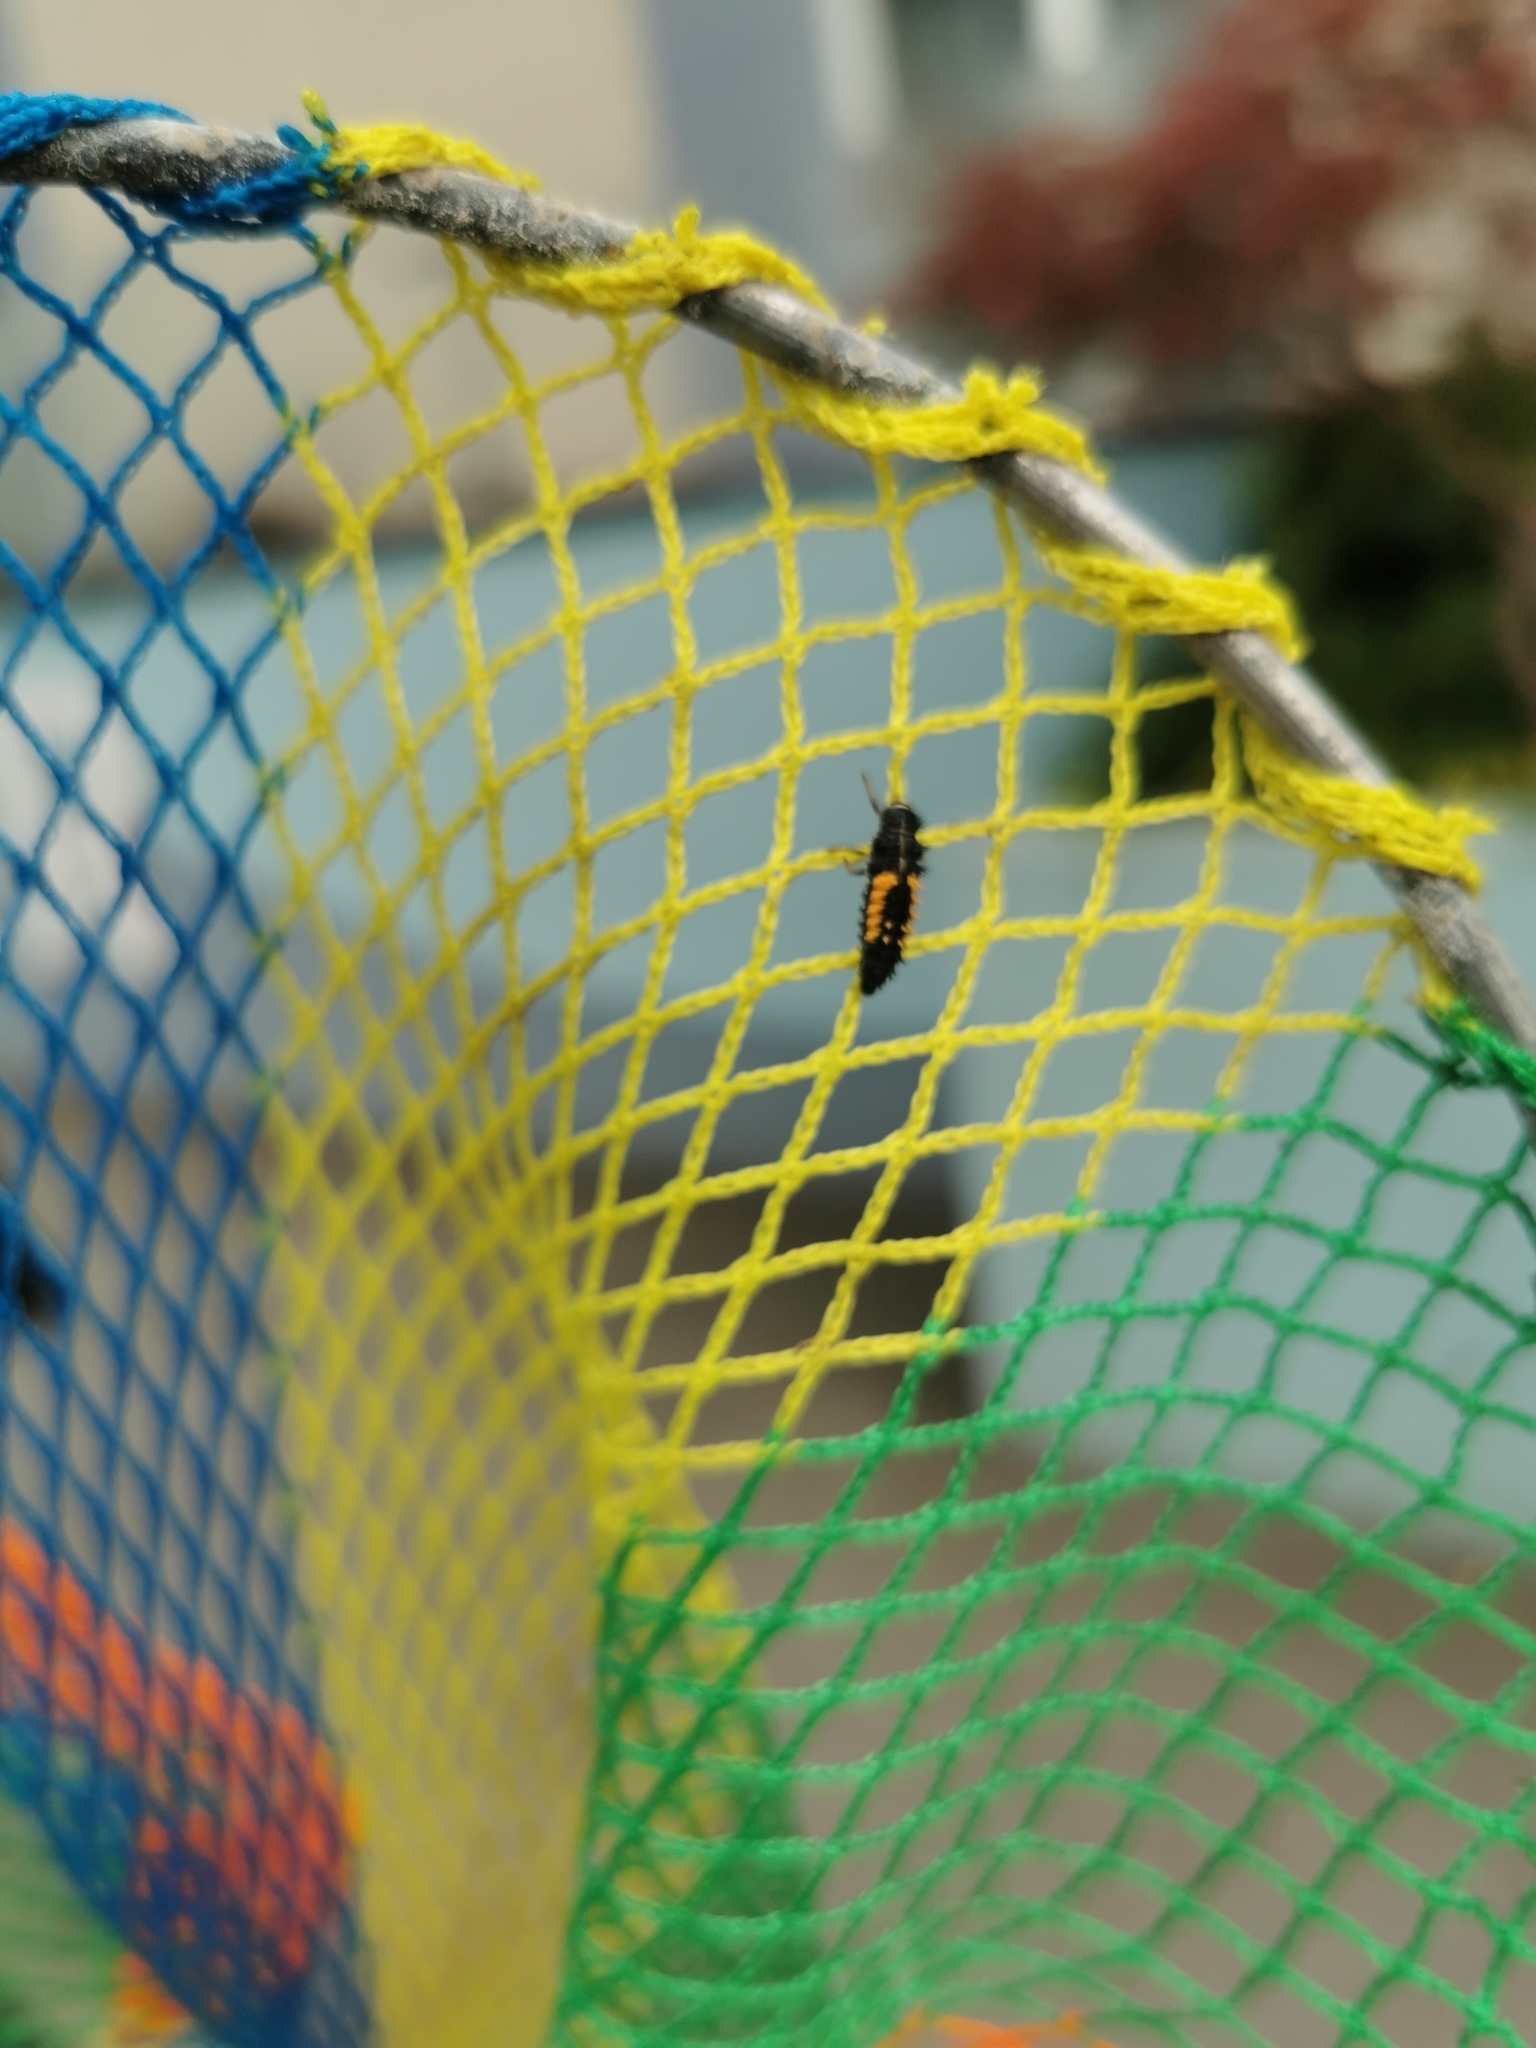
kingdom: Animalia
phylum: Arthropoda
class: Insecta
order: Coleoptera
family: Coccinellidae
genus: Harmonia
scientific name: Harmonia axyridis
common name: Harlequin ladybird
